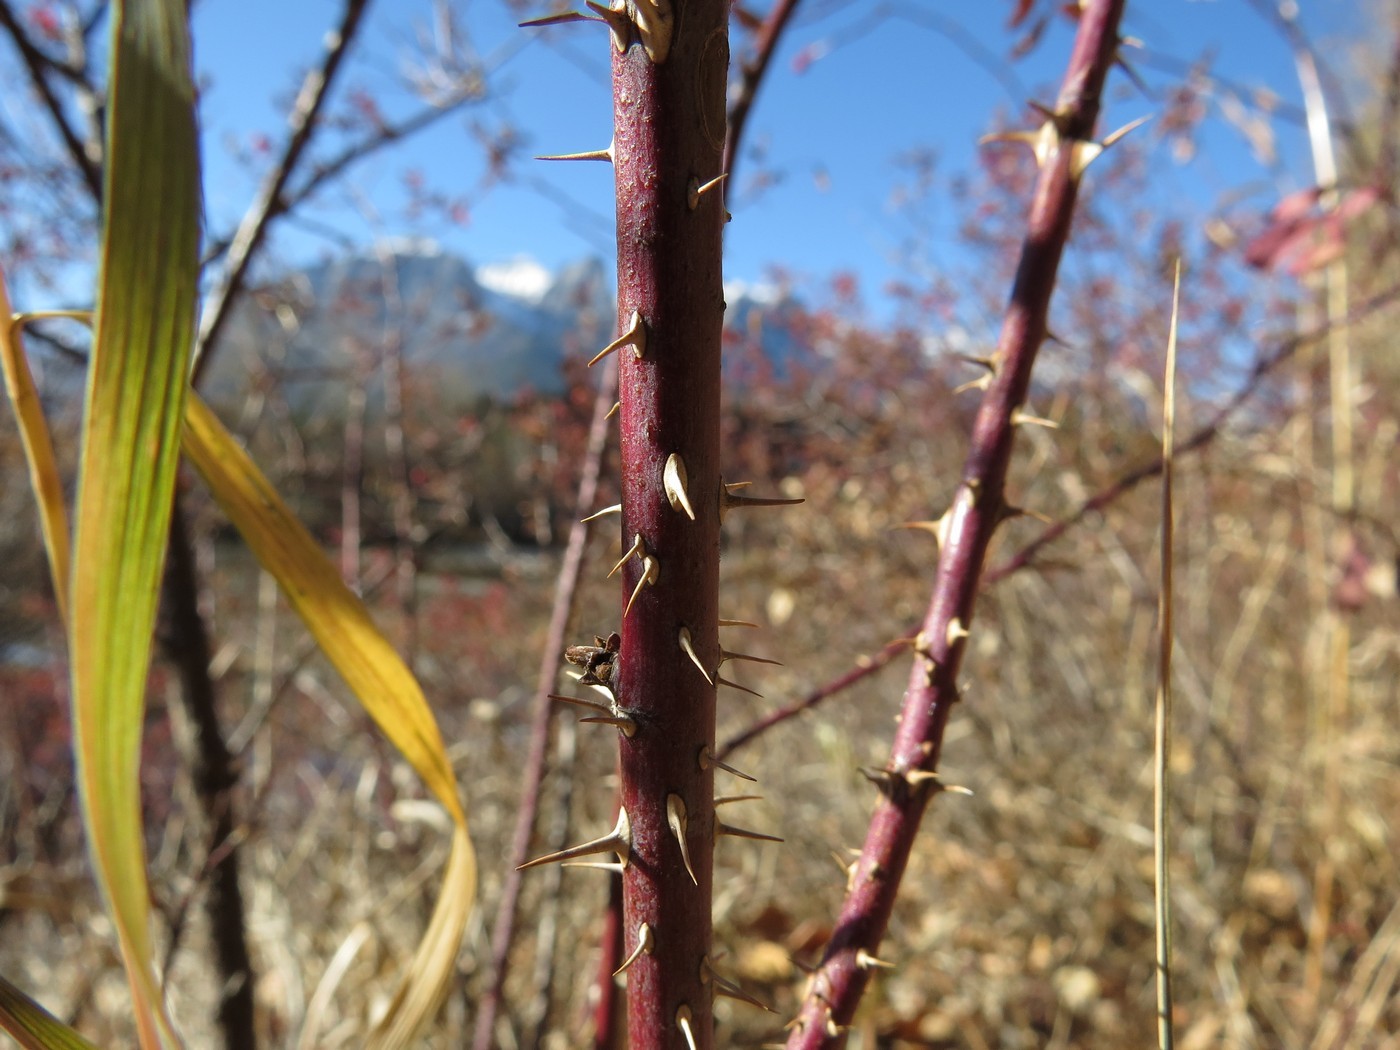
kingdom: Plantae
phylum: Tracheophyta
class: Magnoliopsida
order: Rosales
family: Rosaceae
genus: Rosa
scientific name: Rosa woodsii
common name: Woods's rose
